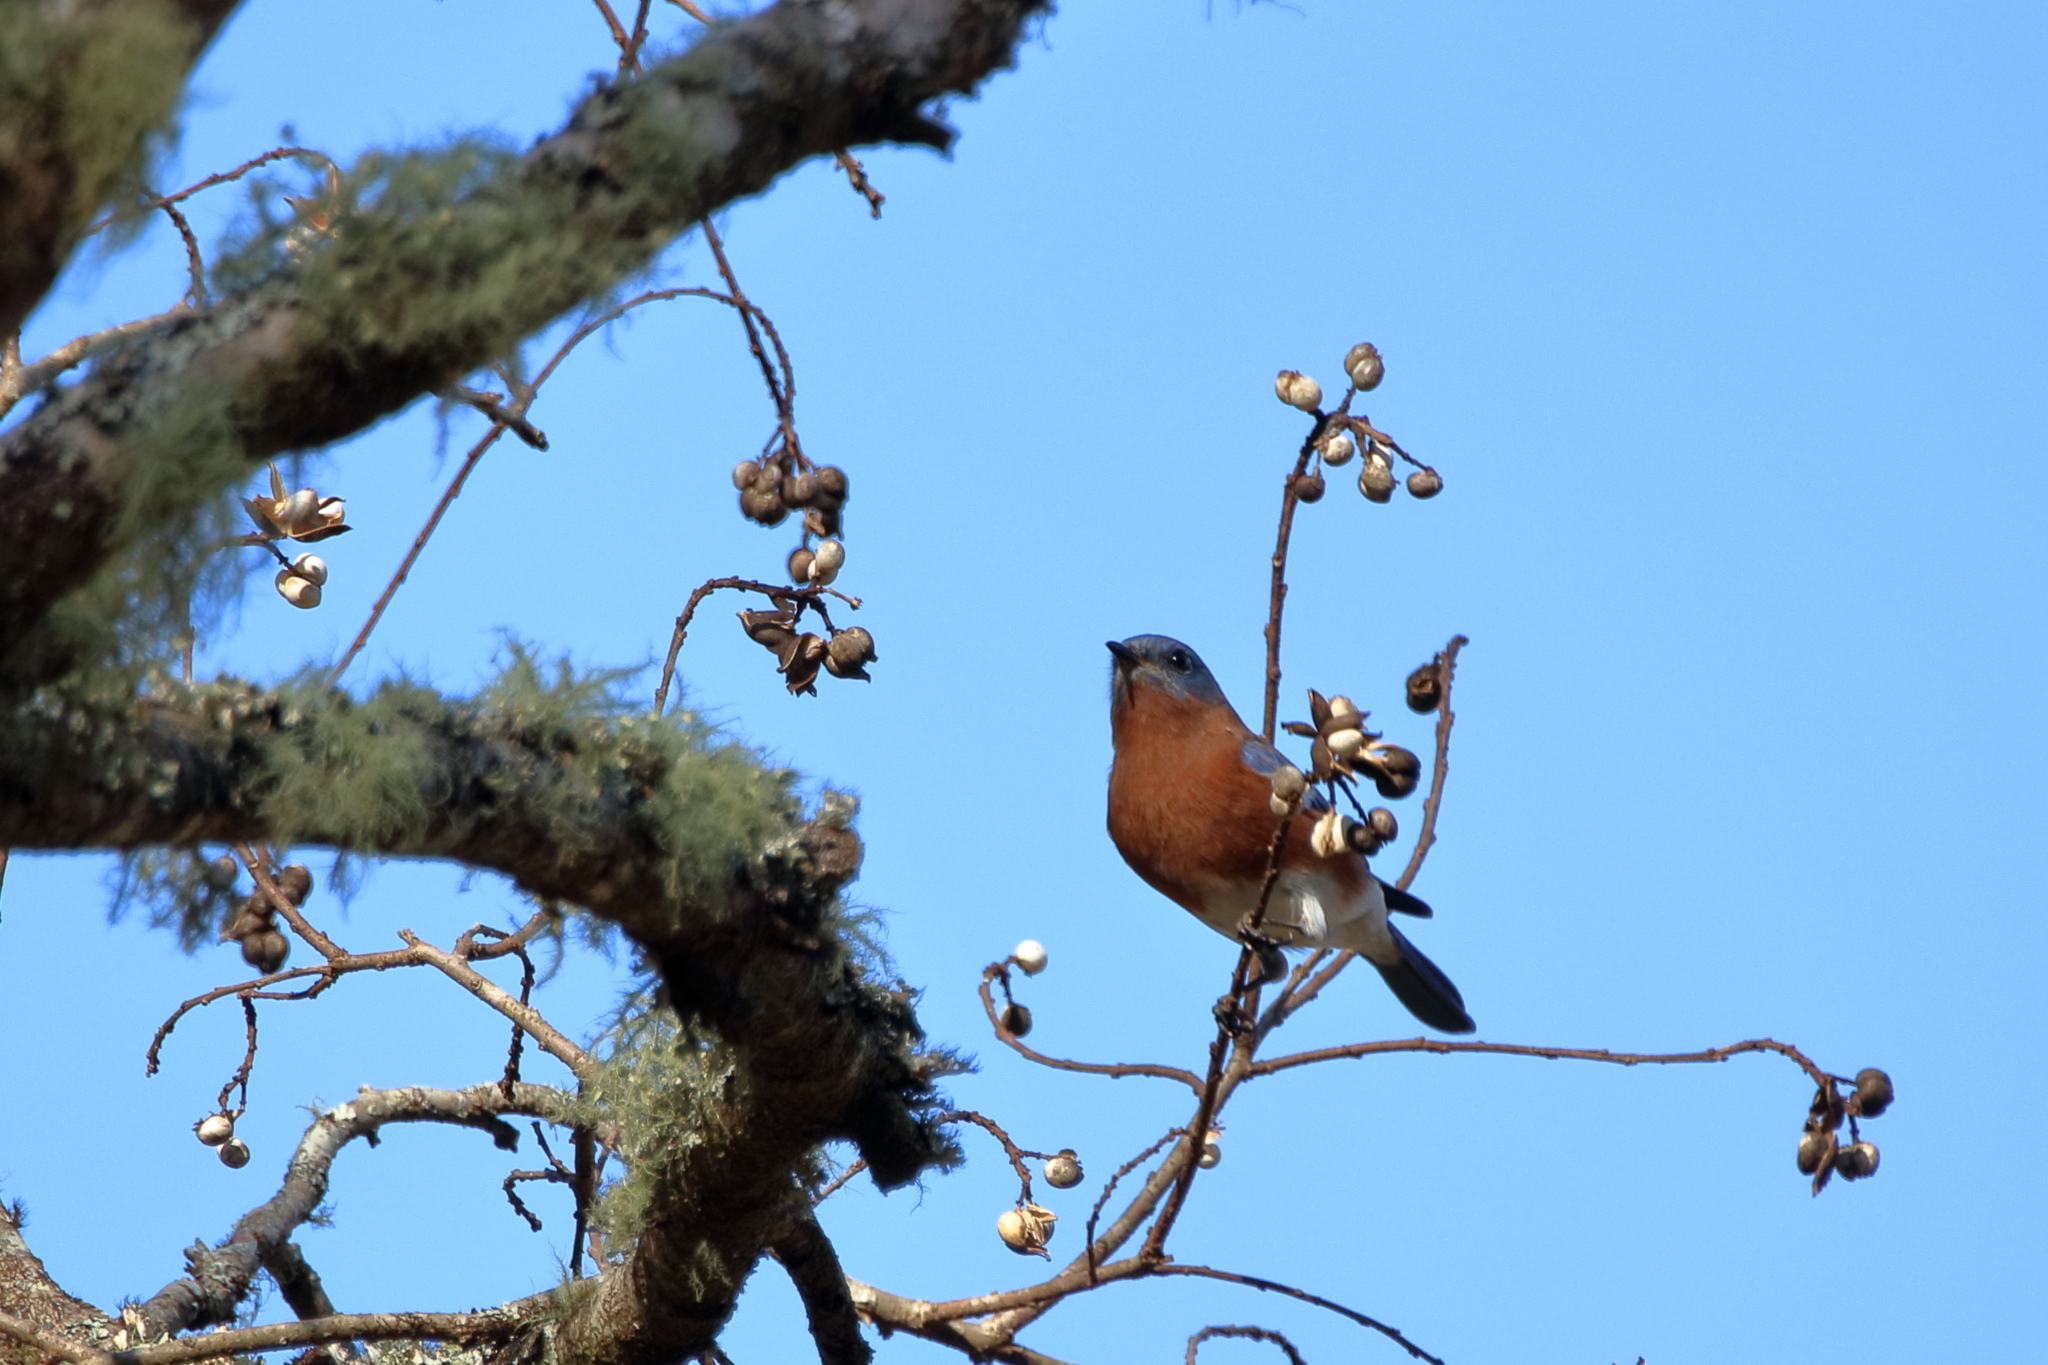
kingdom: Animalia
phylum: Chordata
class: Aves
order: Passeriformes
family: Turdidae
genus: Sialia
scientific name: Sialia sialis
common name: Eastern bluebird
